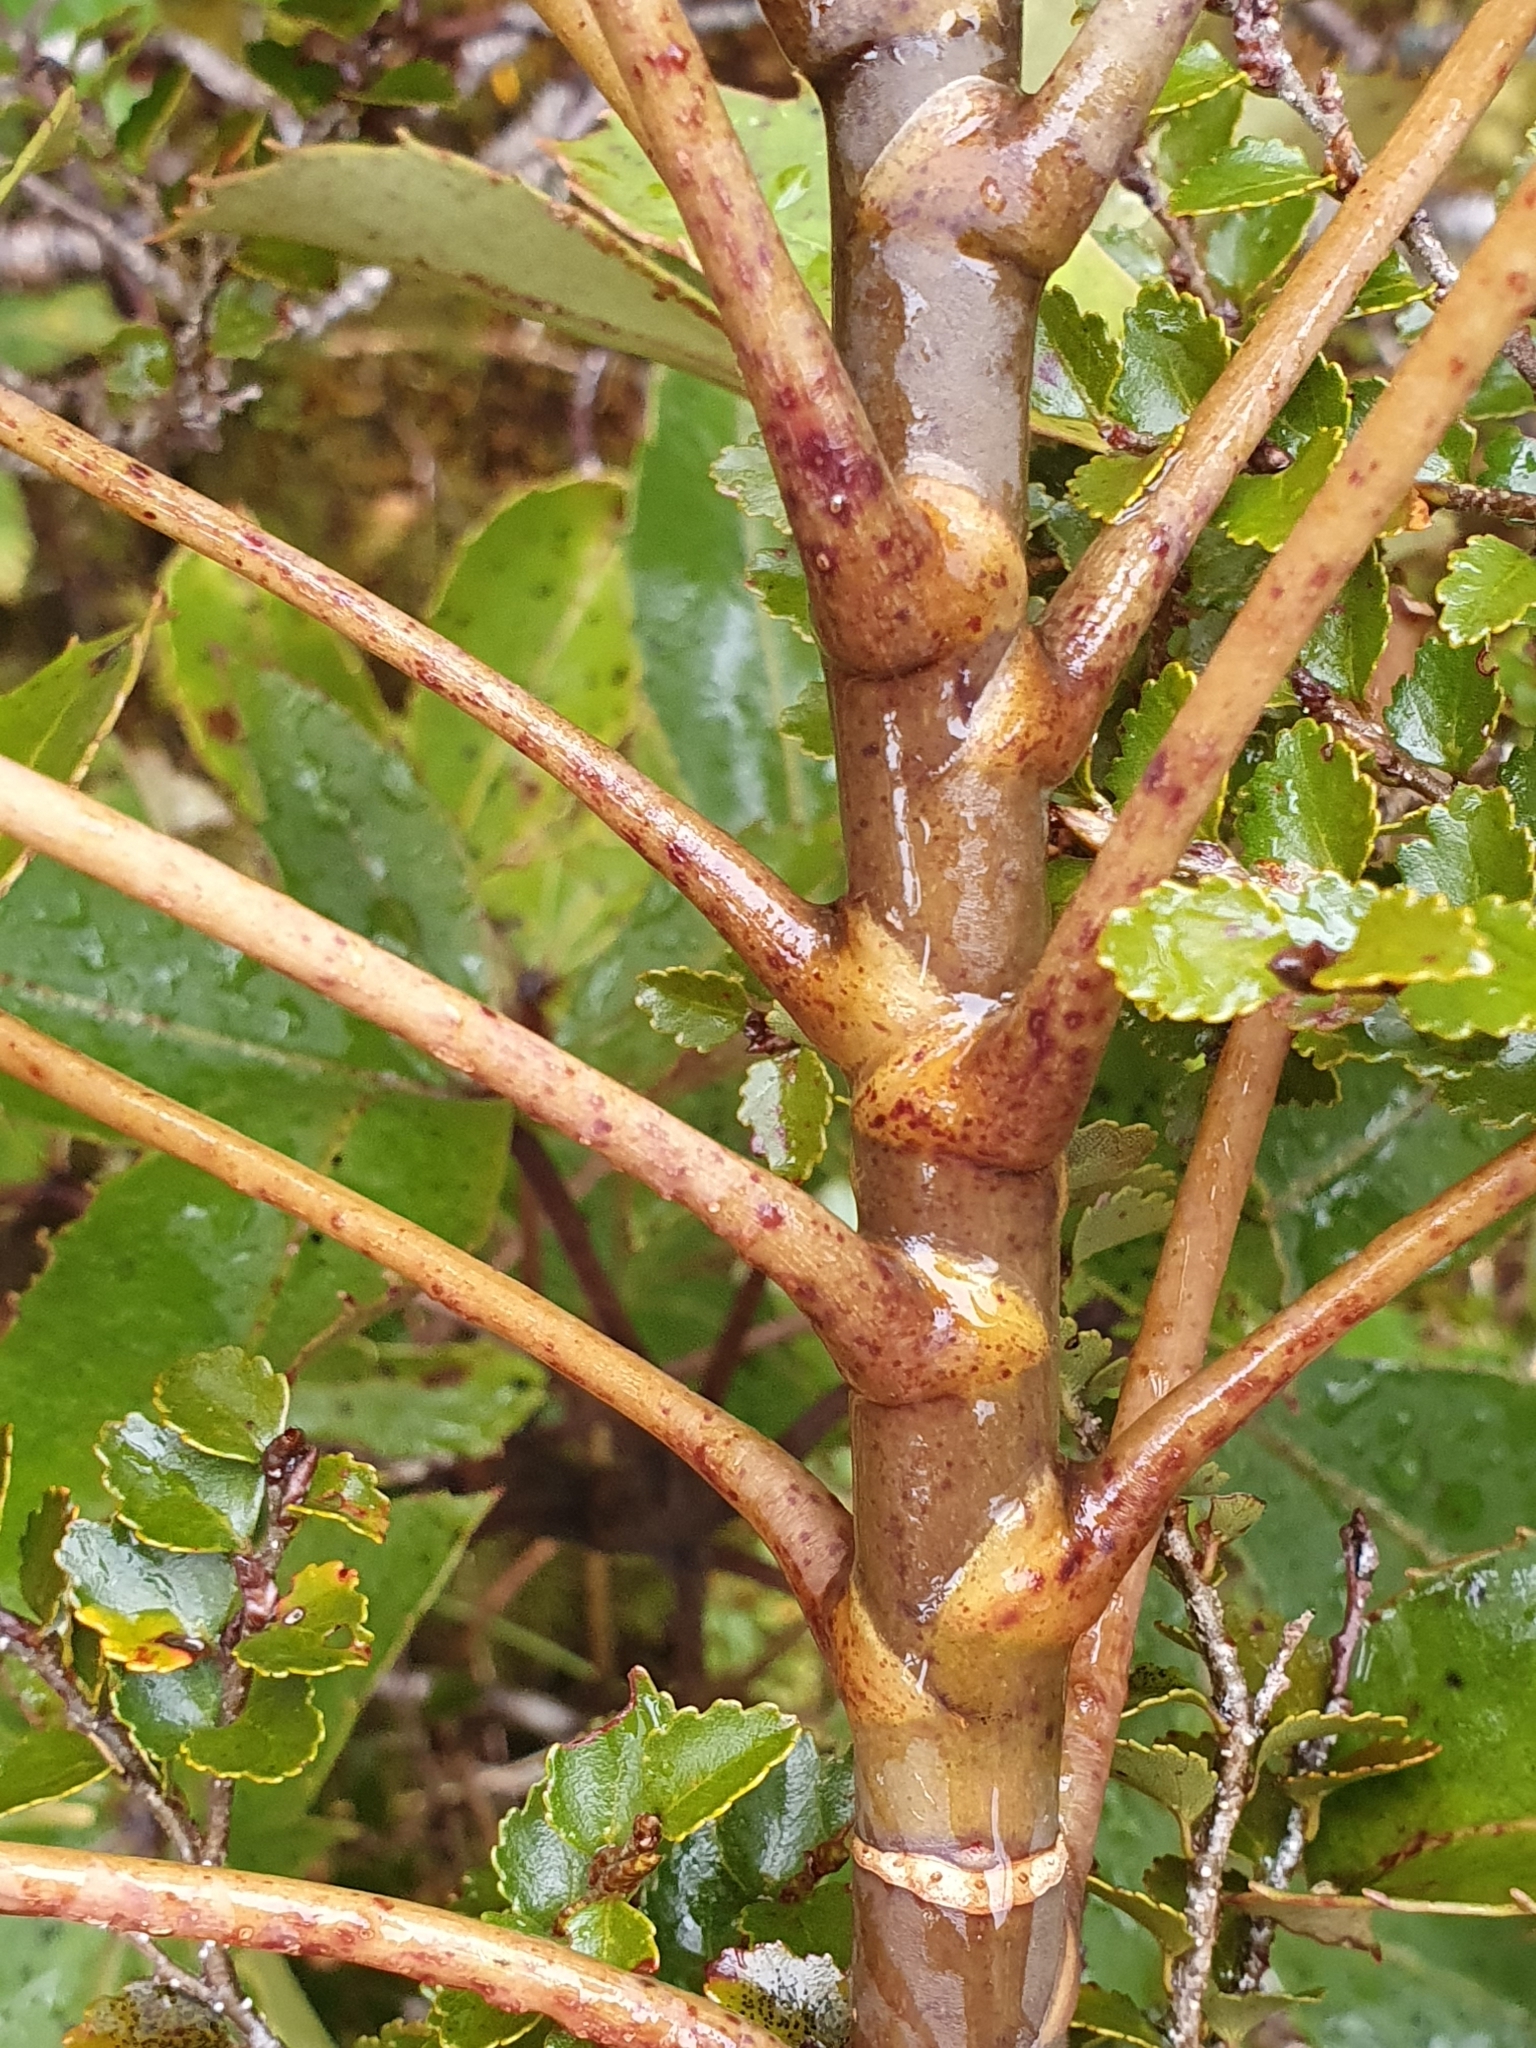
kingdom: Plantae
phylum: Tracheophyta
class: Magnoliopsida
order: Apiales
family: Araliaceae
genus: Neopanax
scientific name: Neopanax colensoi
